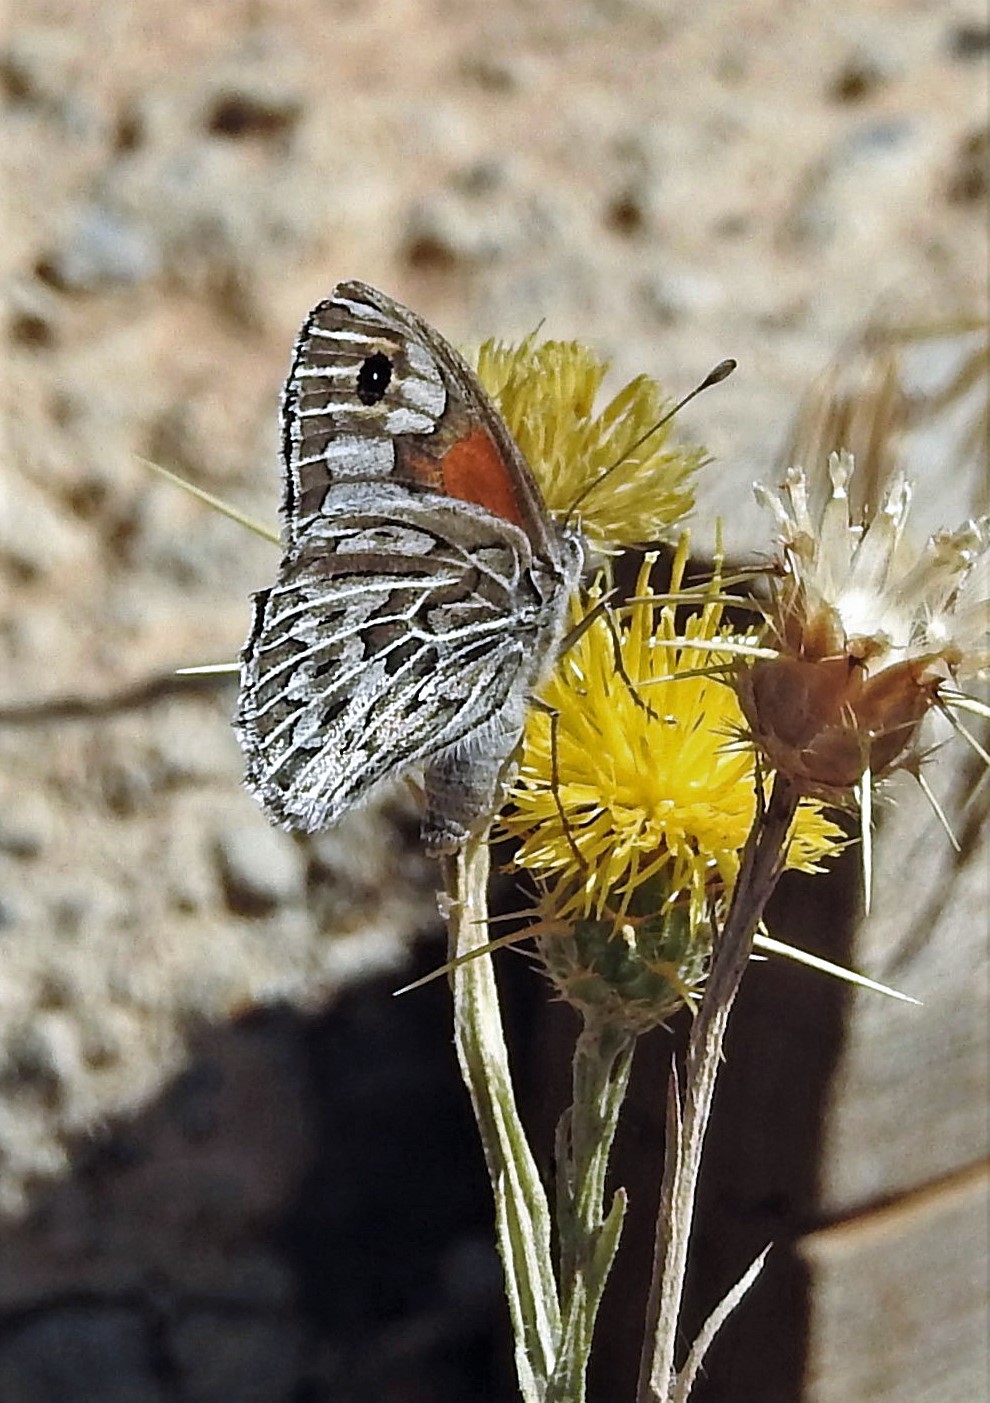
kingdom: Animalia
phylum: Arthropoda
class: Insecta
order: Lepidoptera
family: Nymphalidae
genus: Argyrophorus
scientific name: Argyrophorus argenteus
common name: Silver satyr
